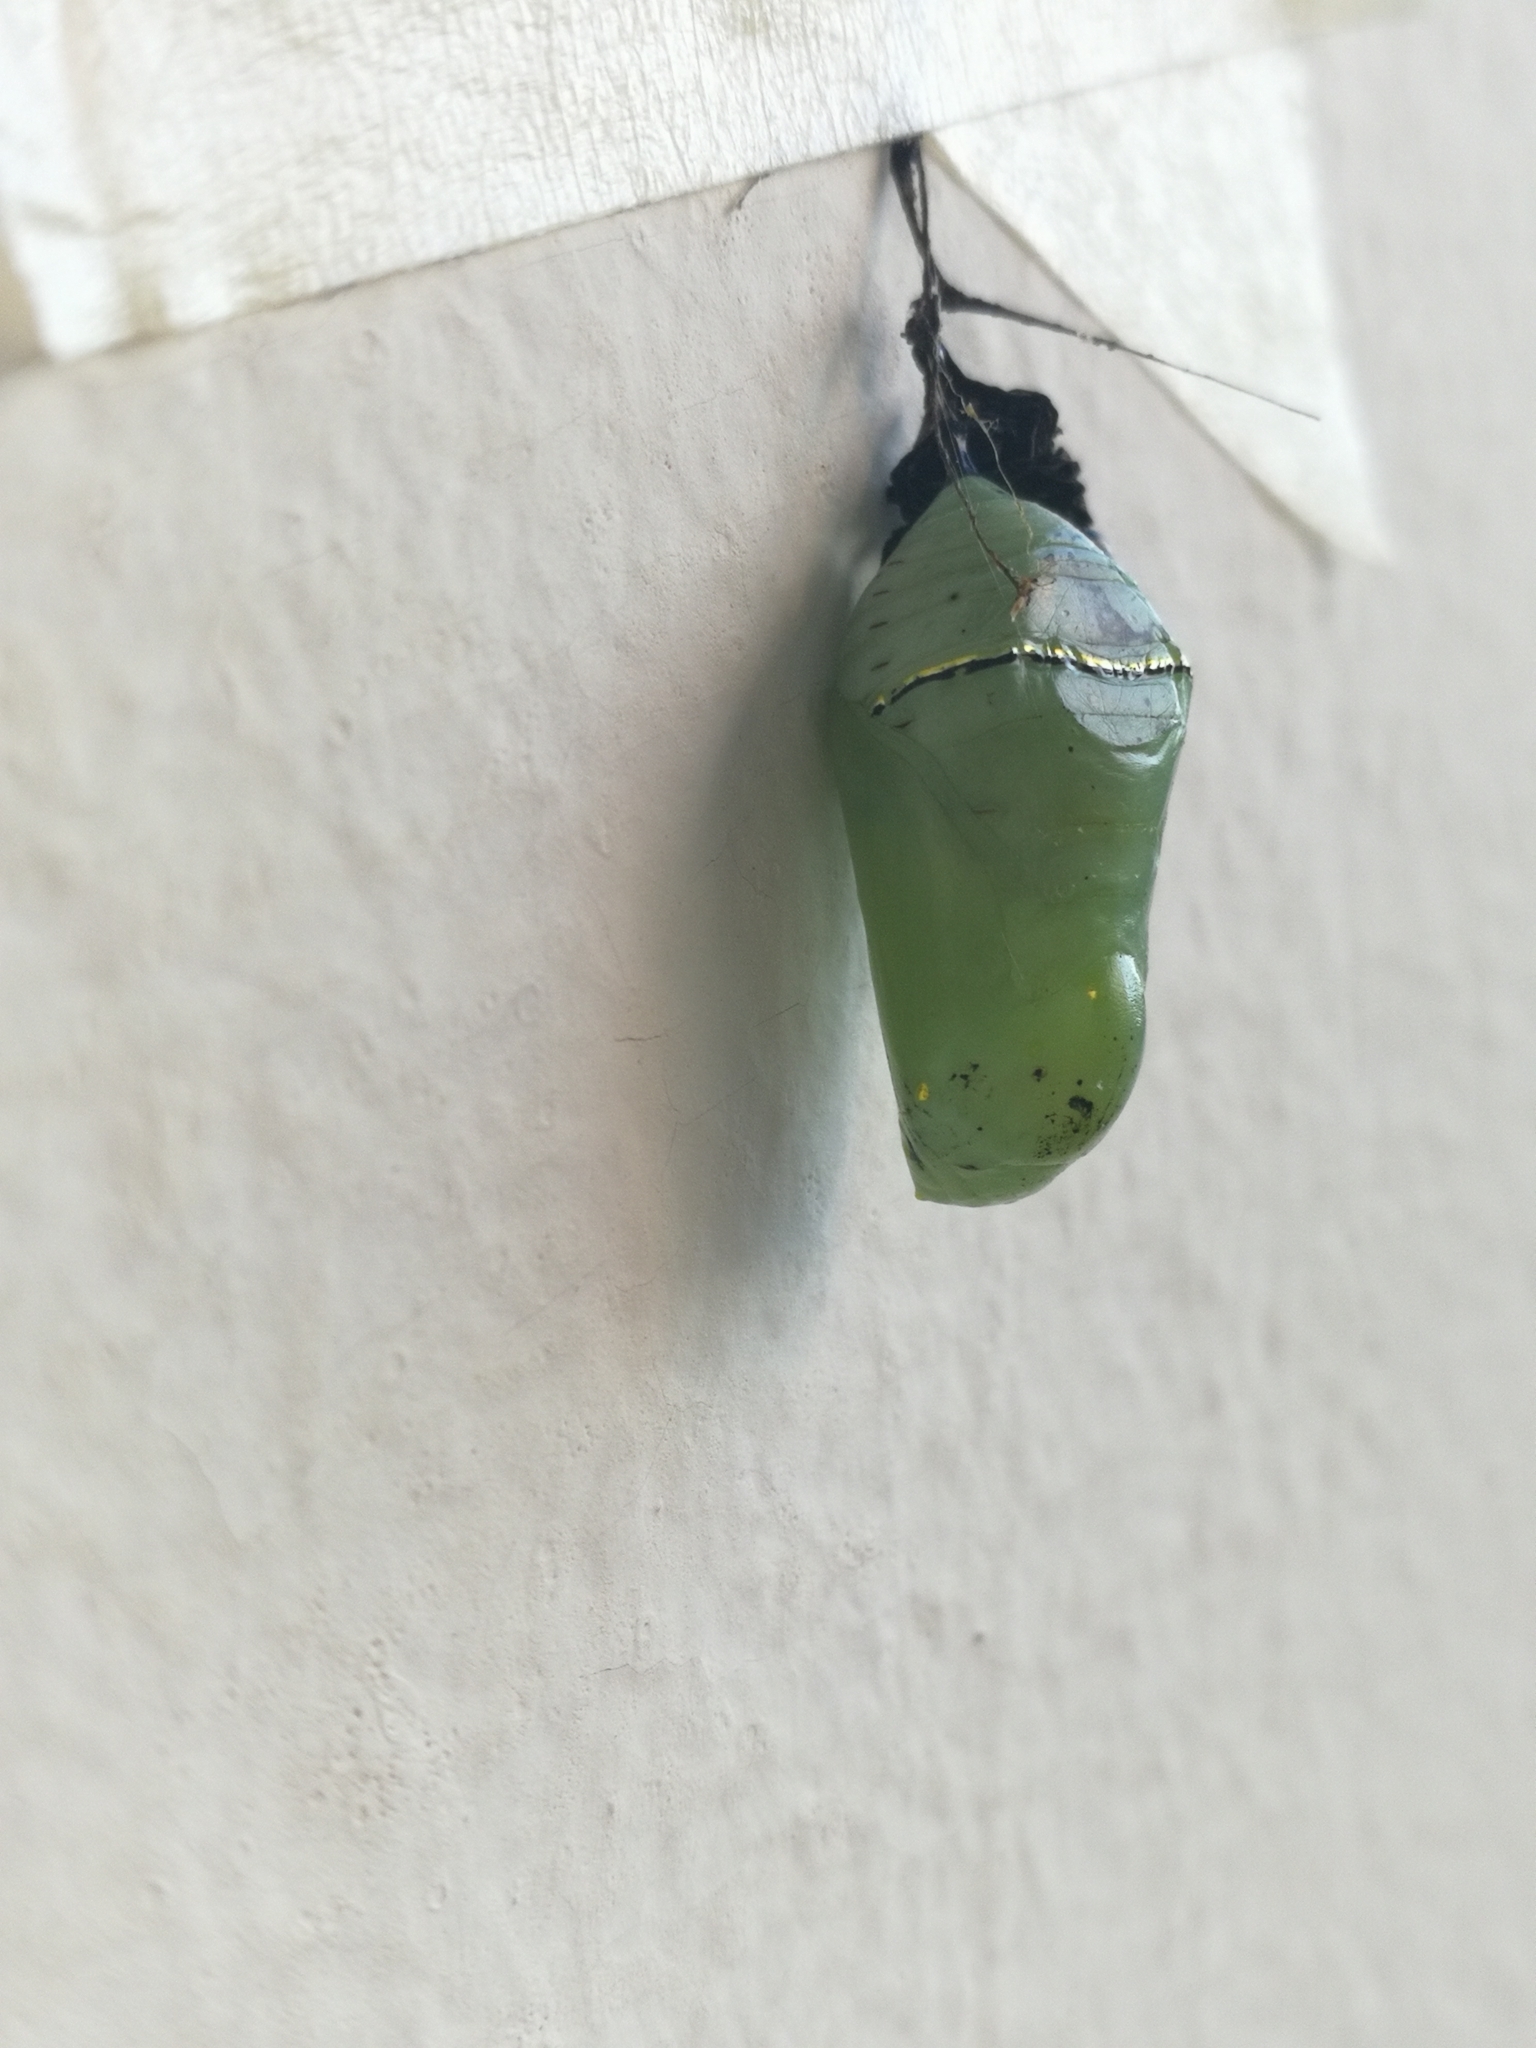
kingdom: Animalia
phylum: Arthropoda
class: Insecta
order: Lepidoptera
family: Nymphalidae
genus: Danaus
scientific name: Danaus erippus
